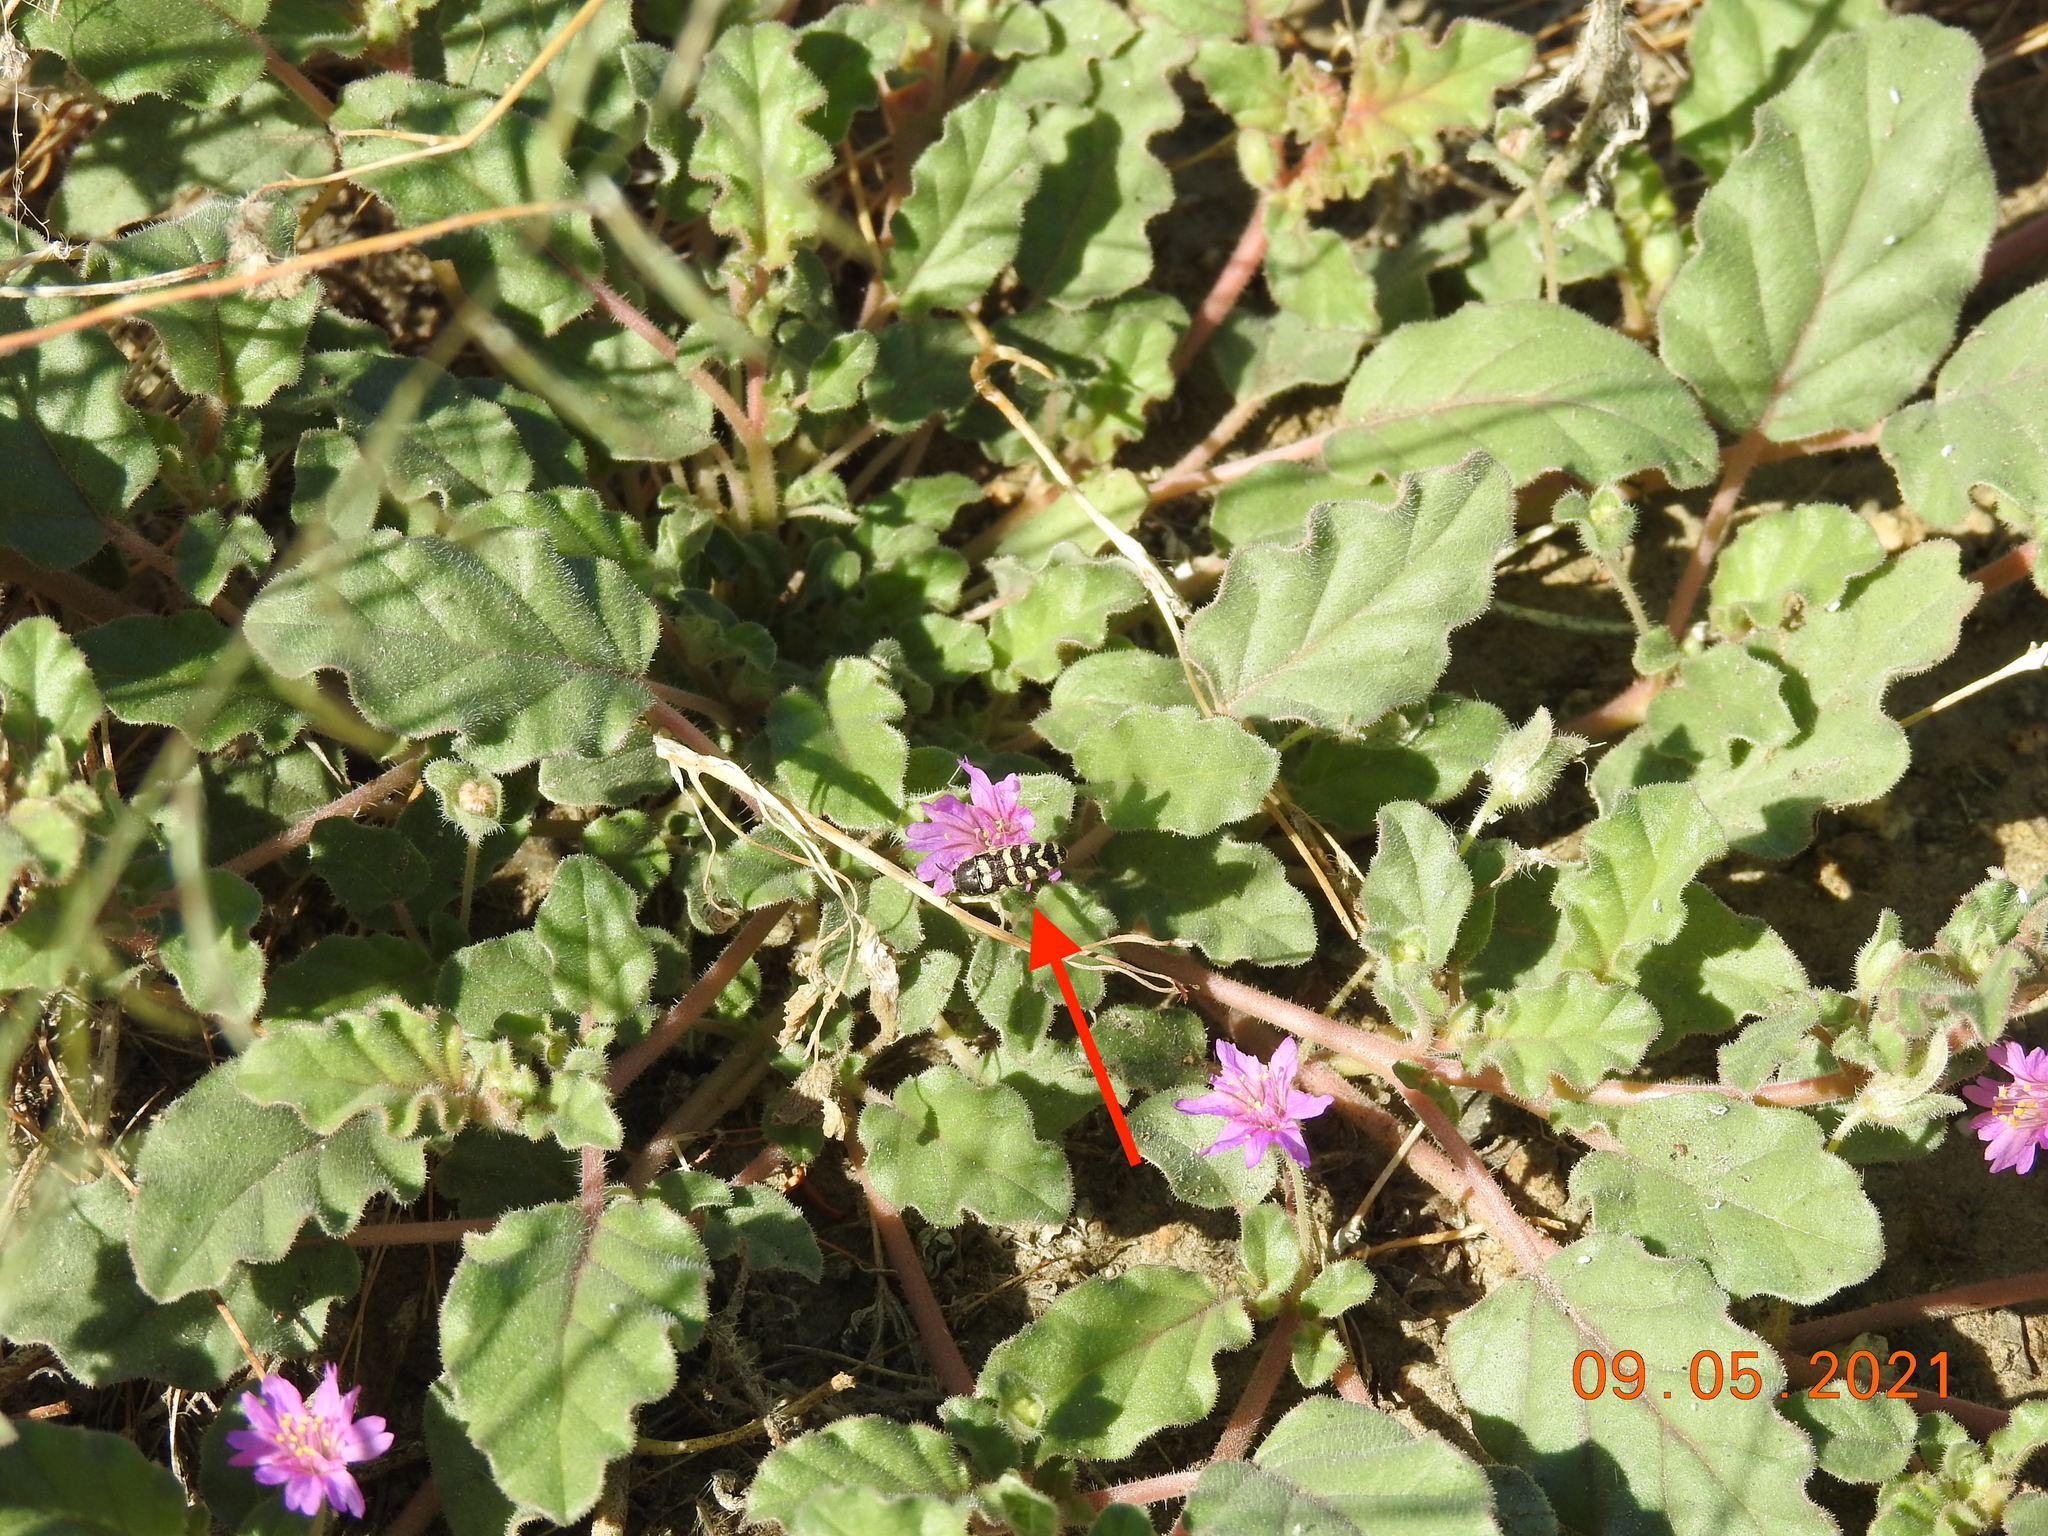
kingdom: Animalia
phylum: Arthropoda
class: Insecta
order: Coleoptera
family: Buprestidae
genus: Acmaeodera
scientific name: Acmaeodera alicia
